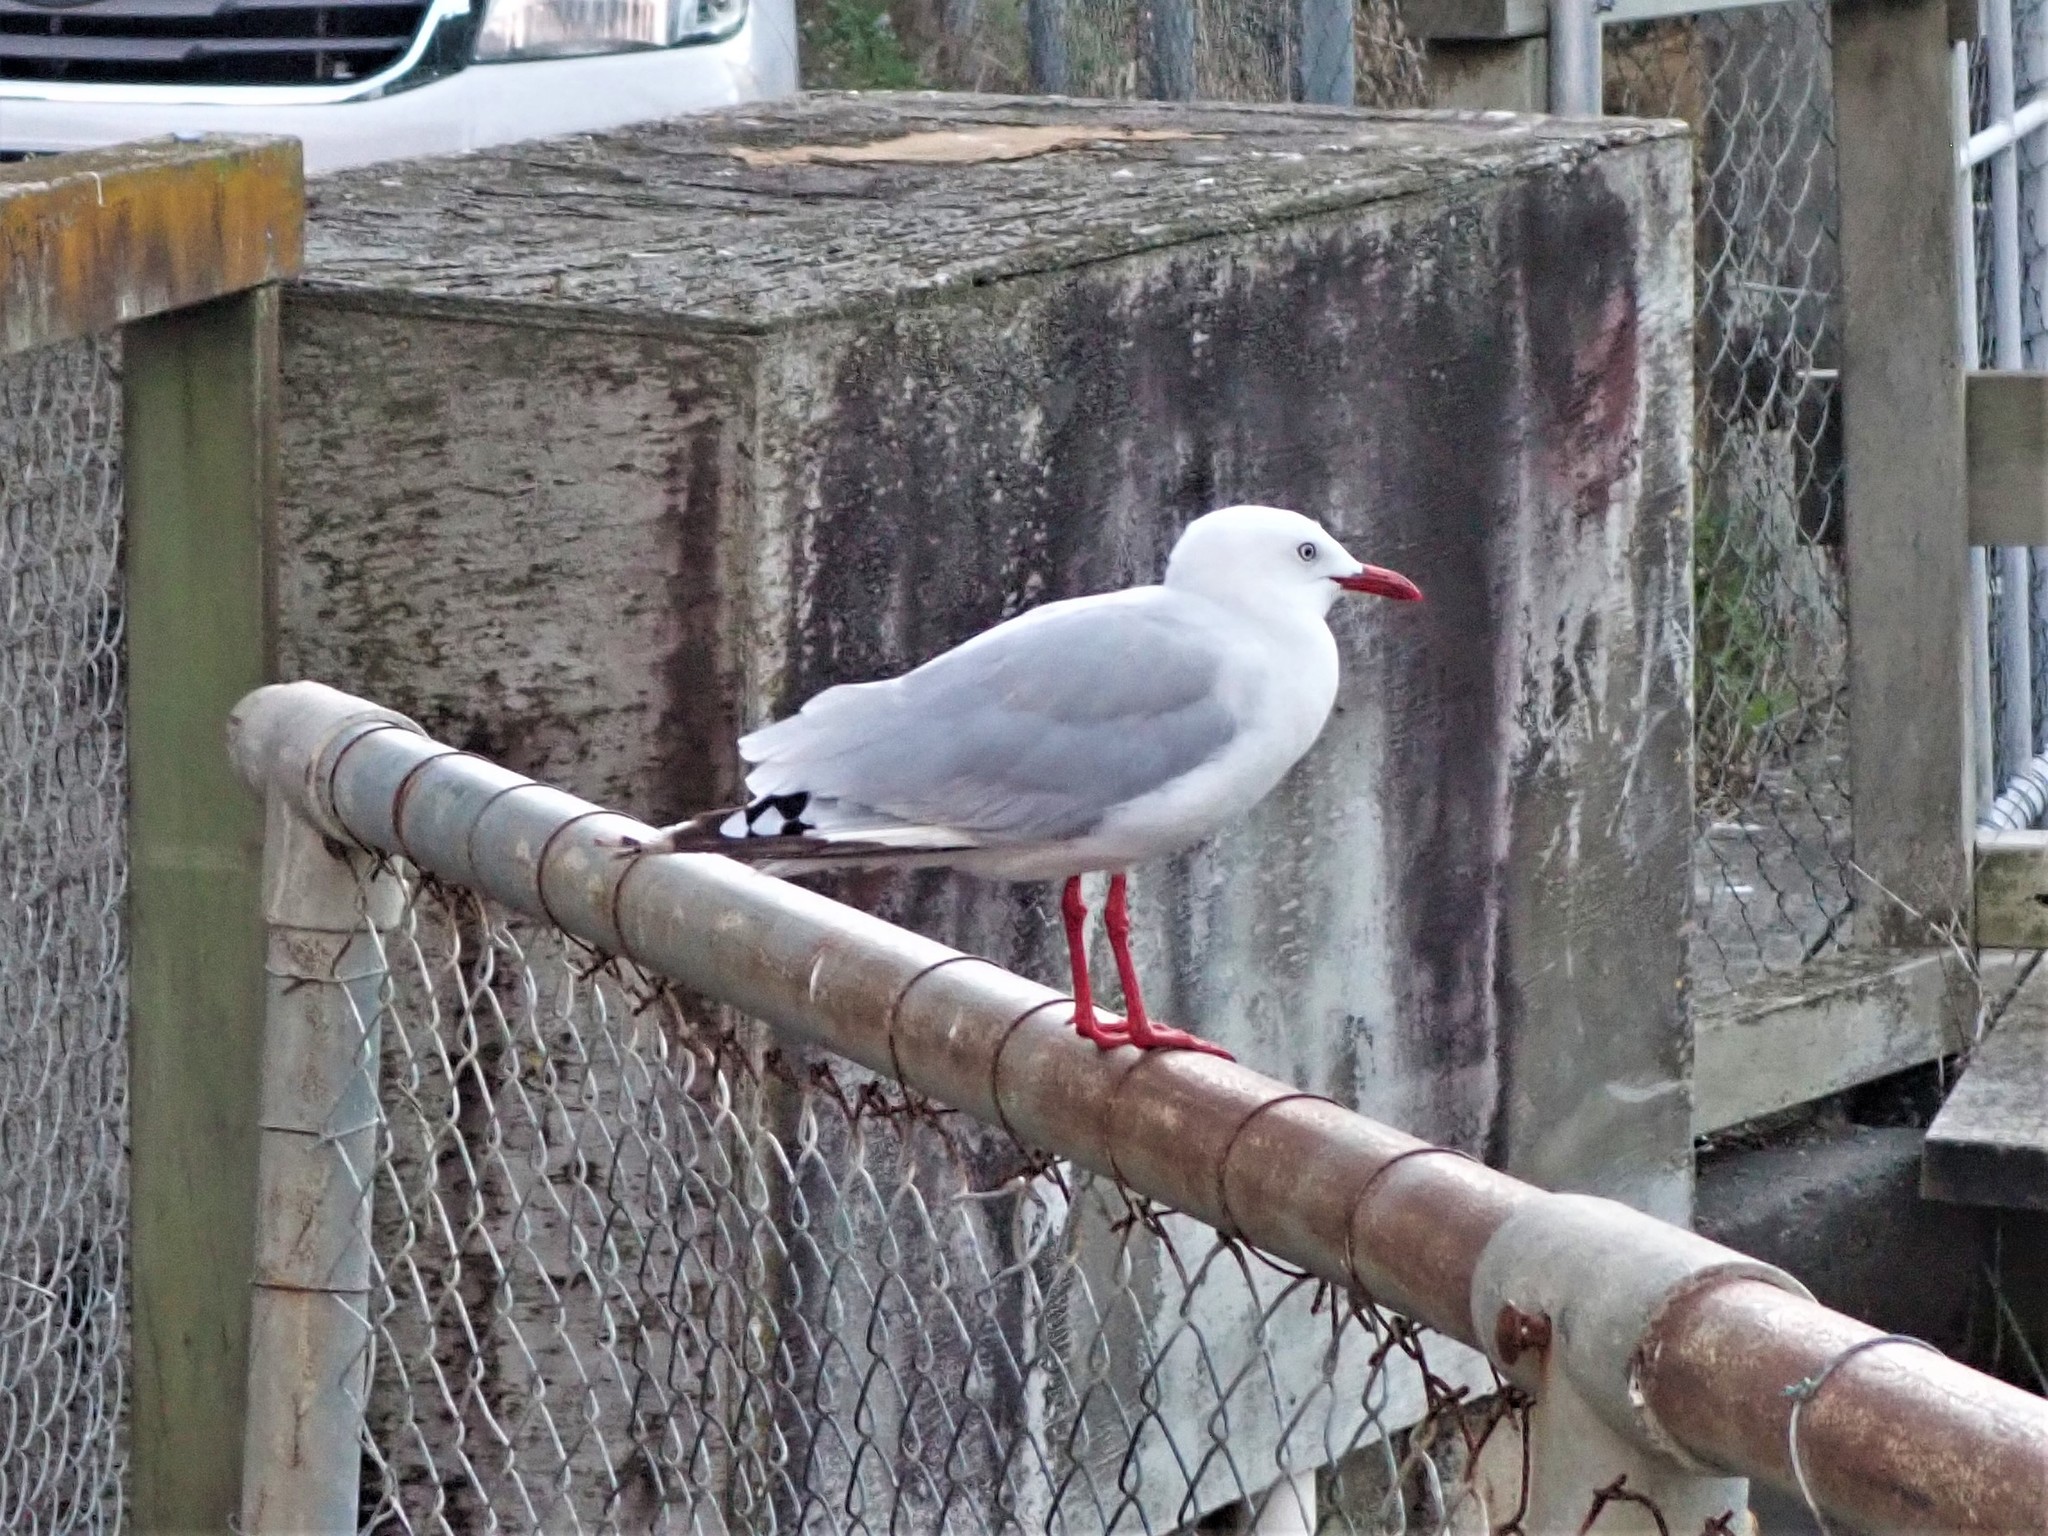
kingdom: Animalia
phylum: Chordata
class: Aves
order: Charadriiformes
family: Laridae
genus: Chroicocephalus
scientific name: Chroicocephalus novaehollandiae
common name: Silver gull
